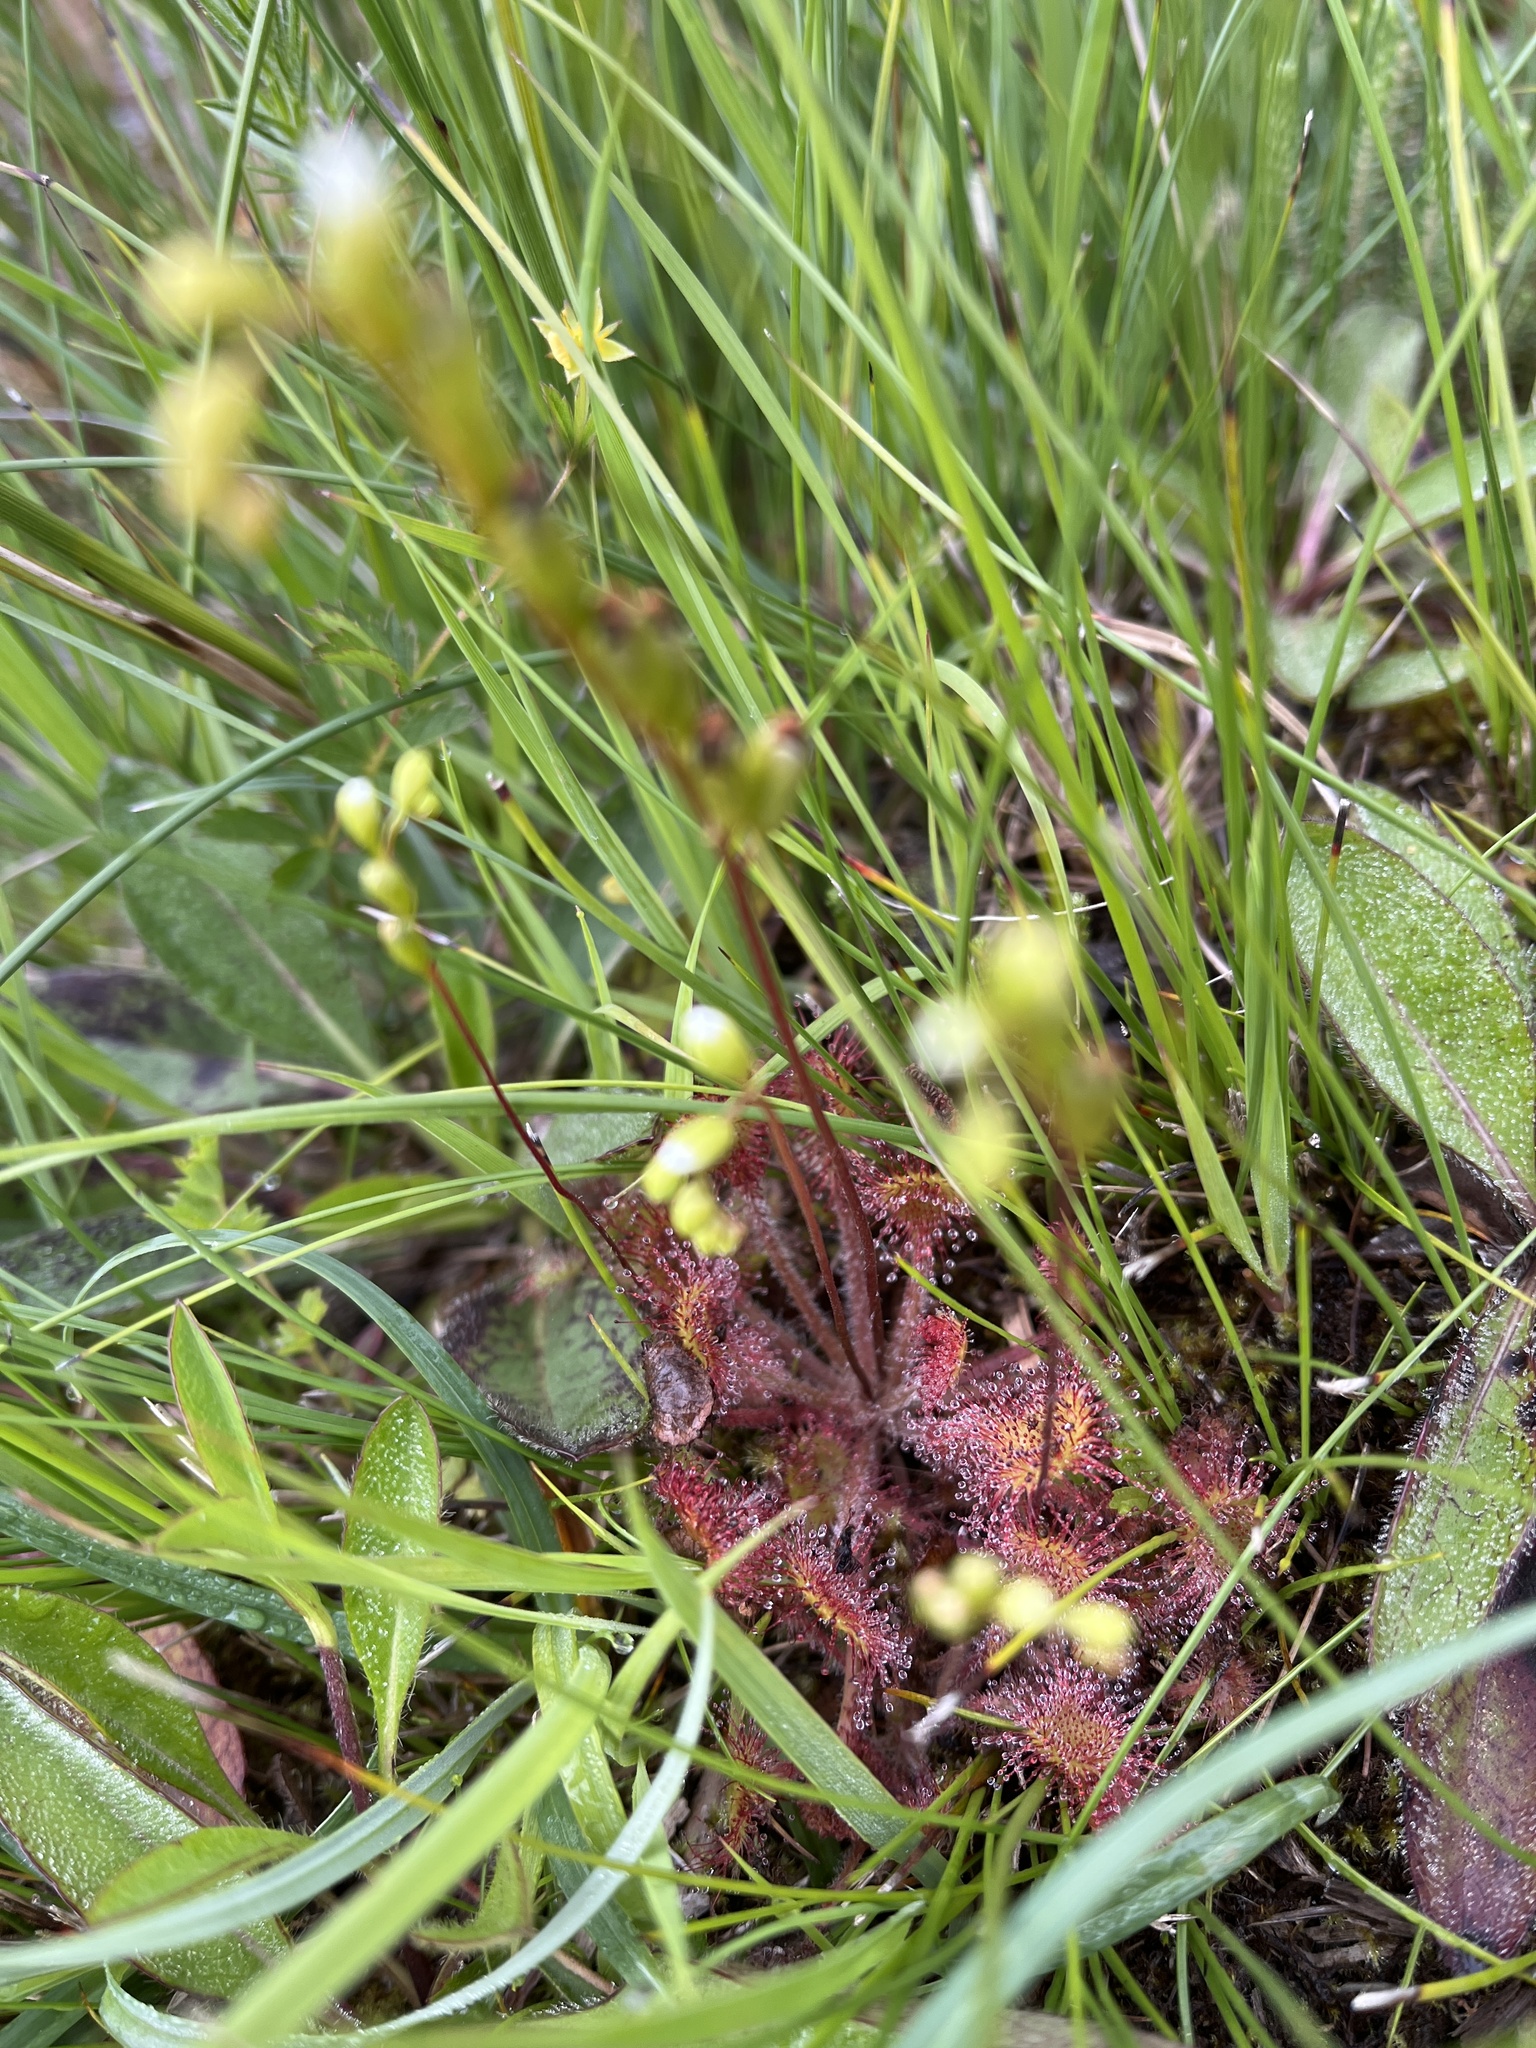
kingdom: Plantae
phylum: Tracheophyta
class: Magnoliopsida
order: Caryophyllales
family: Droseraceae
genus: Drosera
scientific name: Drosera rotundifolia
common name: Round-leaved sundew
